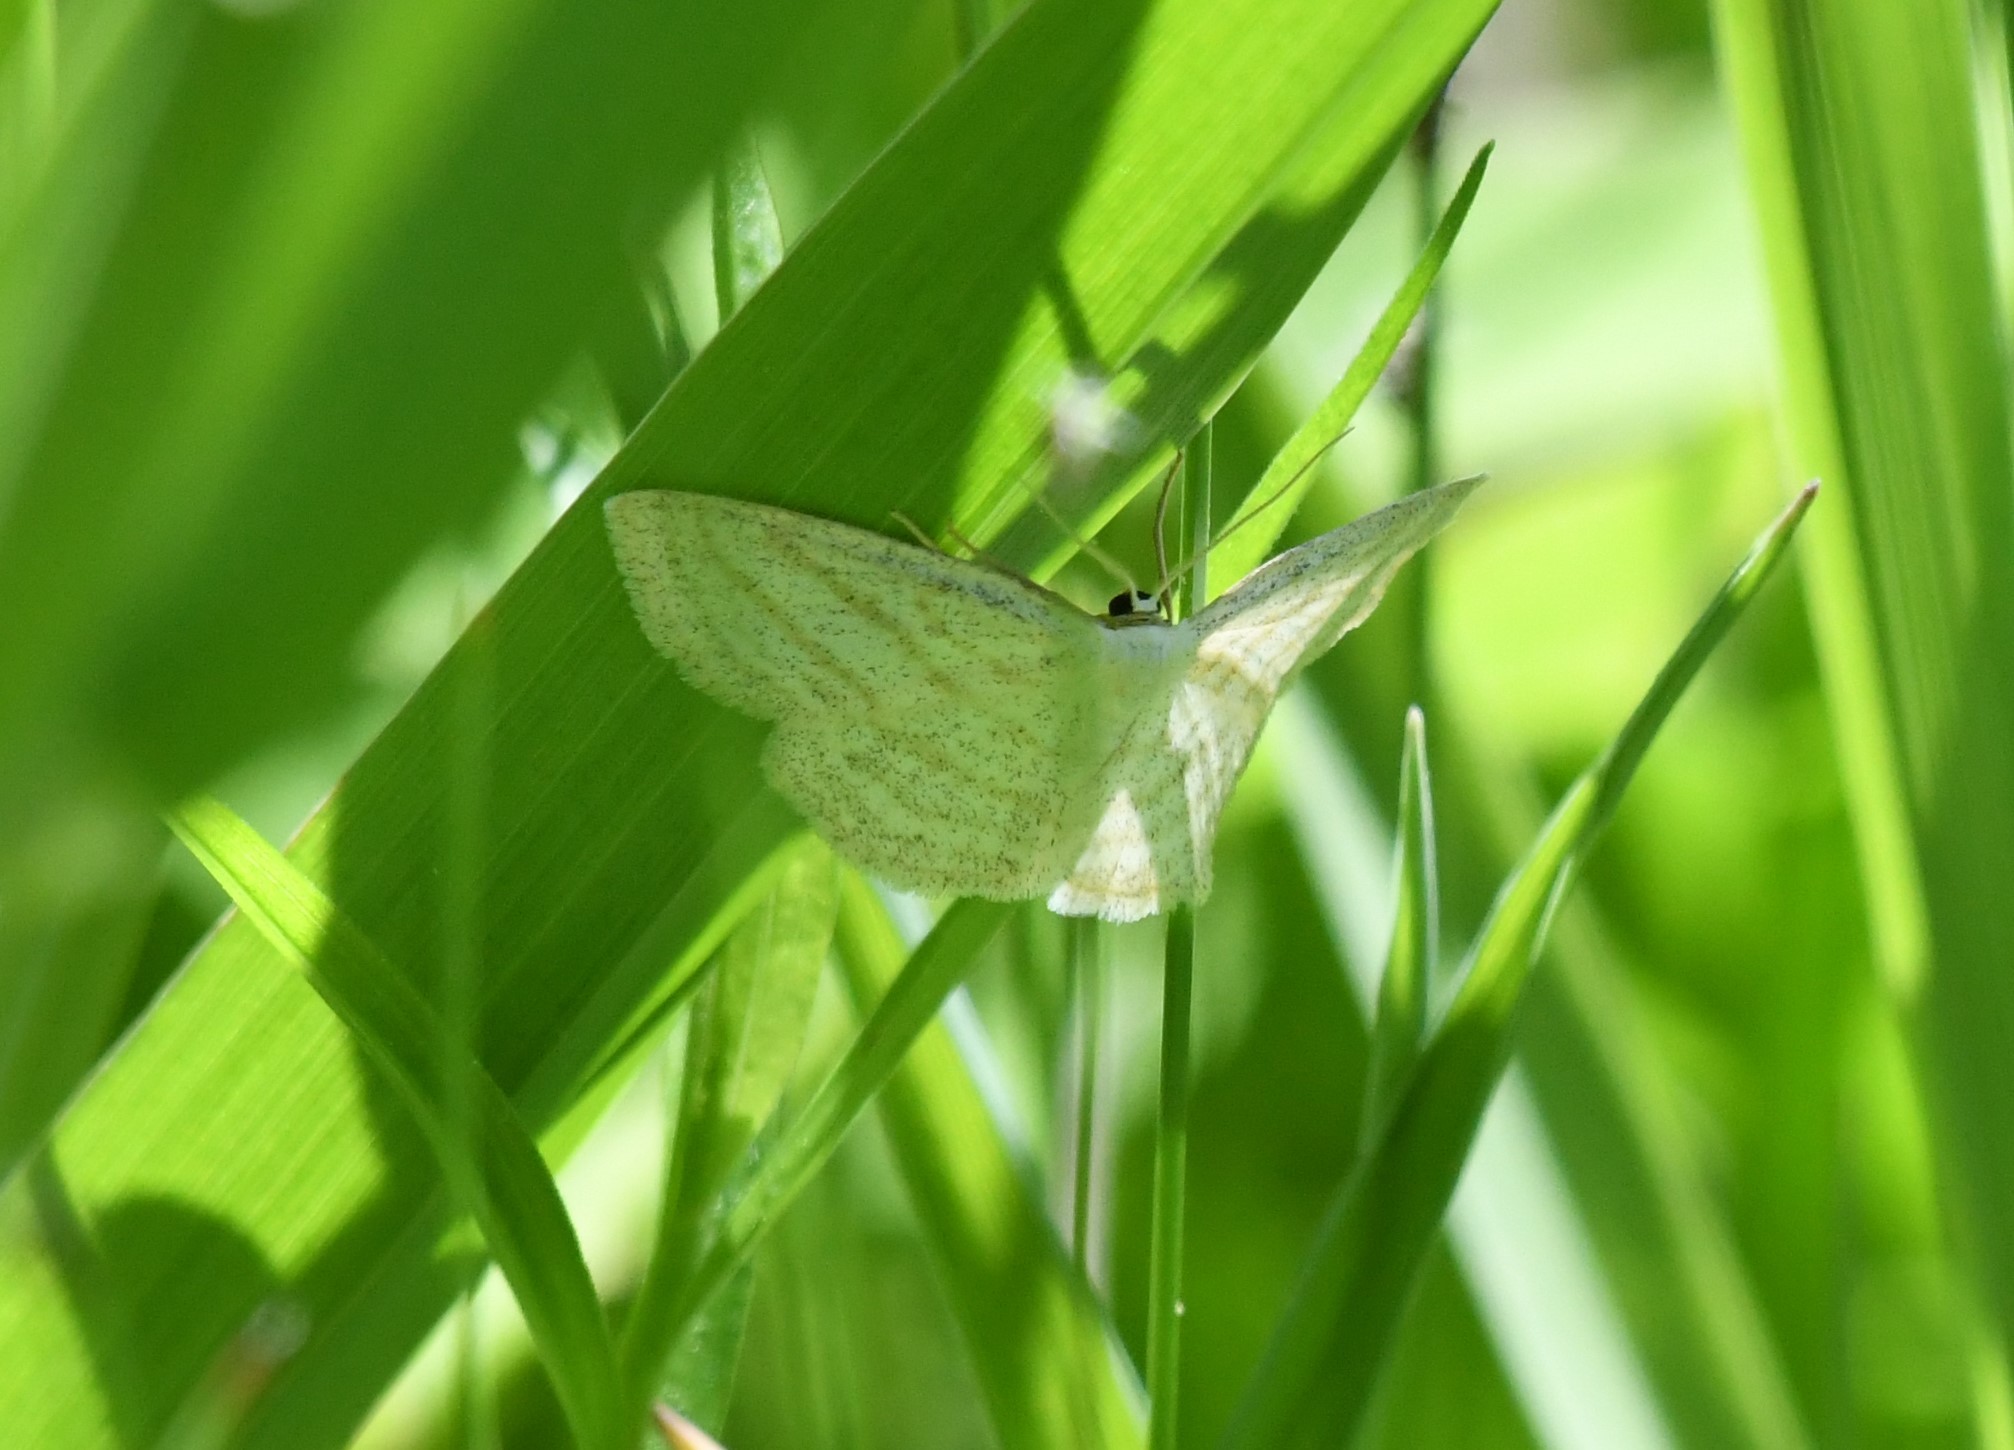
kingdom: Animalia
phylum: Arthropoda
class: Insecta
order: Lepidoptera
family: Geometridae
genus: Scopula
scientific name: Scopula quadrilineata
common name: Four-lined wave moth
